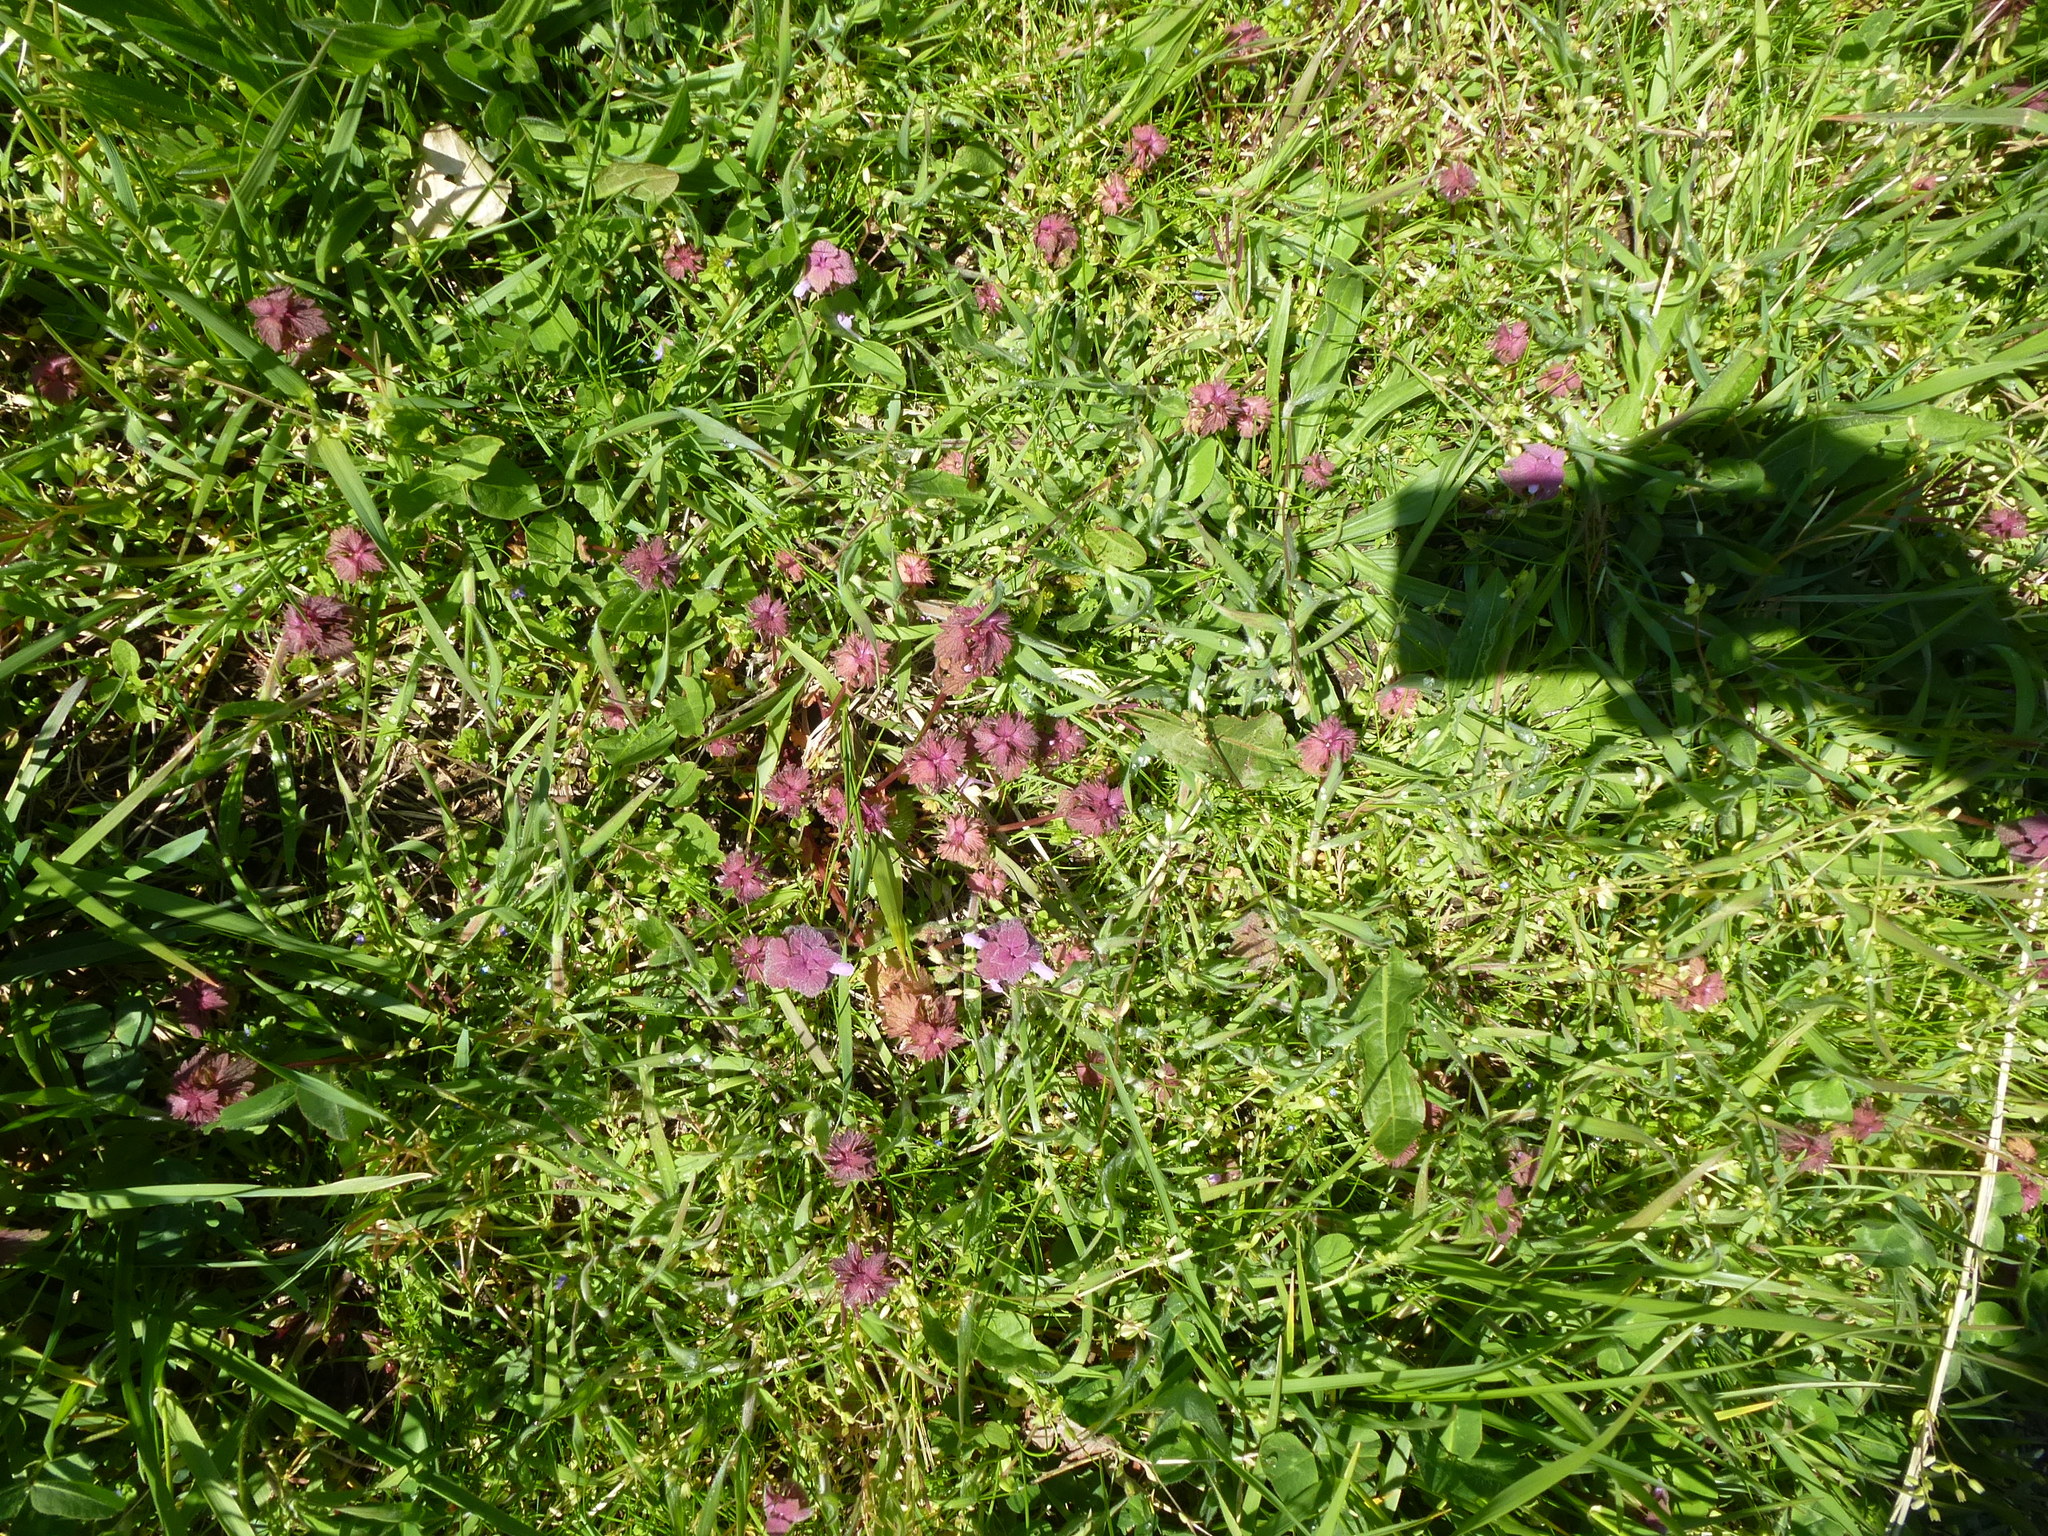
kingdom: Plantae
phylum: Tracheophyta
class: Magnoliopsida
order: Lamiales
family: Lamiaceae
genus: Lamium
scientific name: Lamium purpureum
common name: Red dead-nettle
